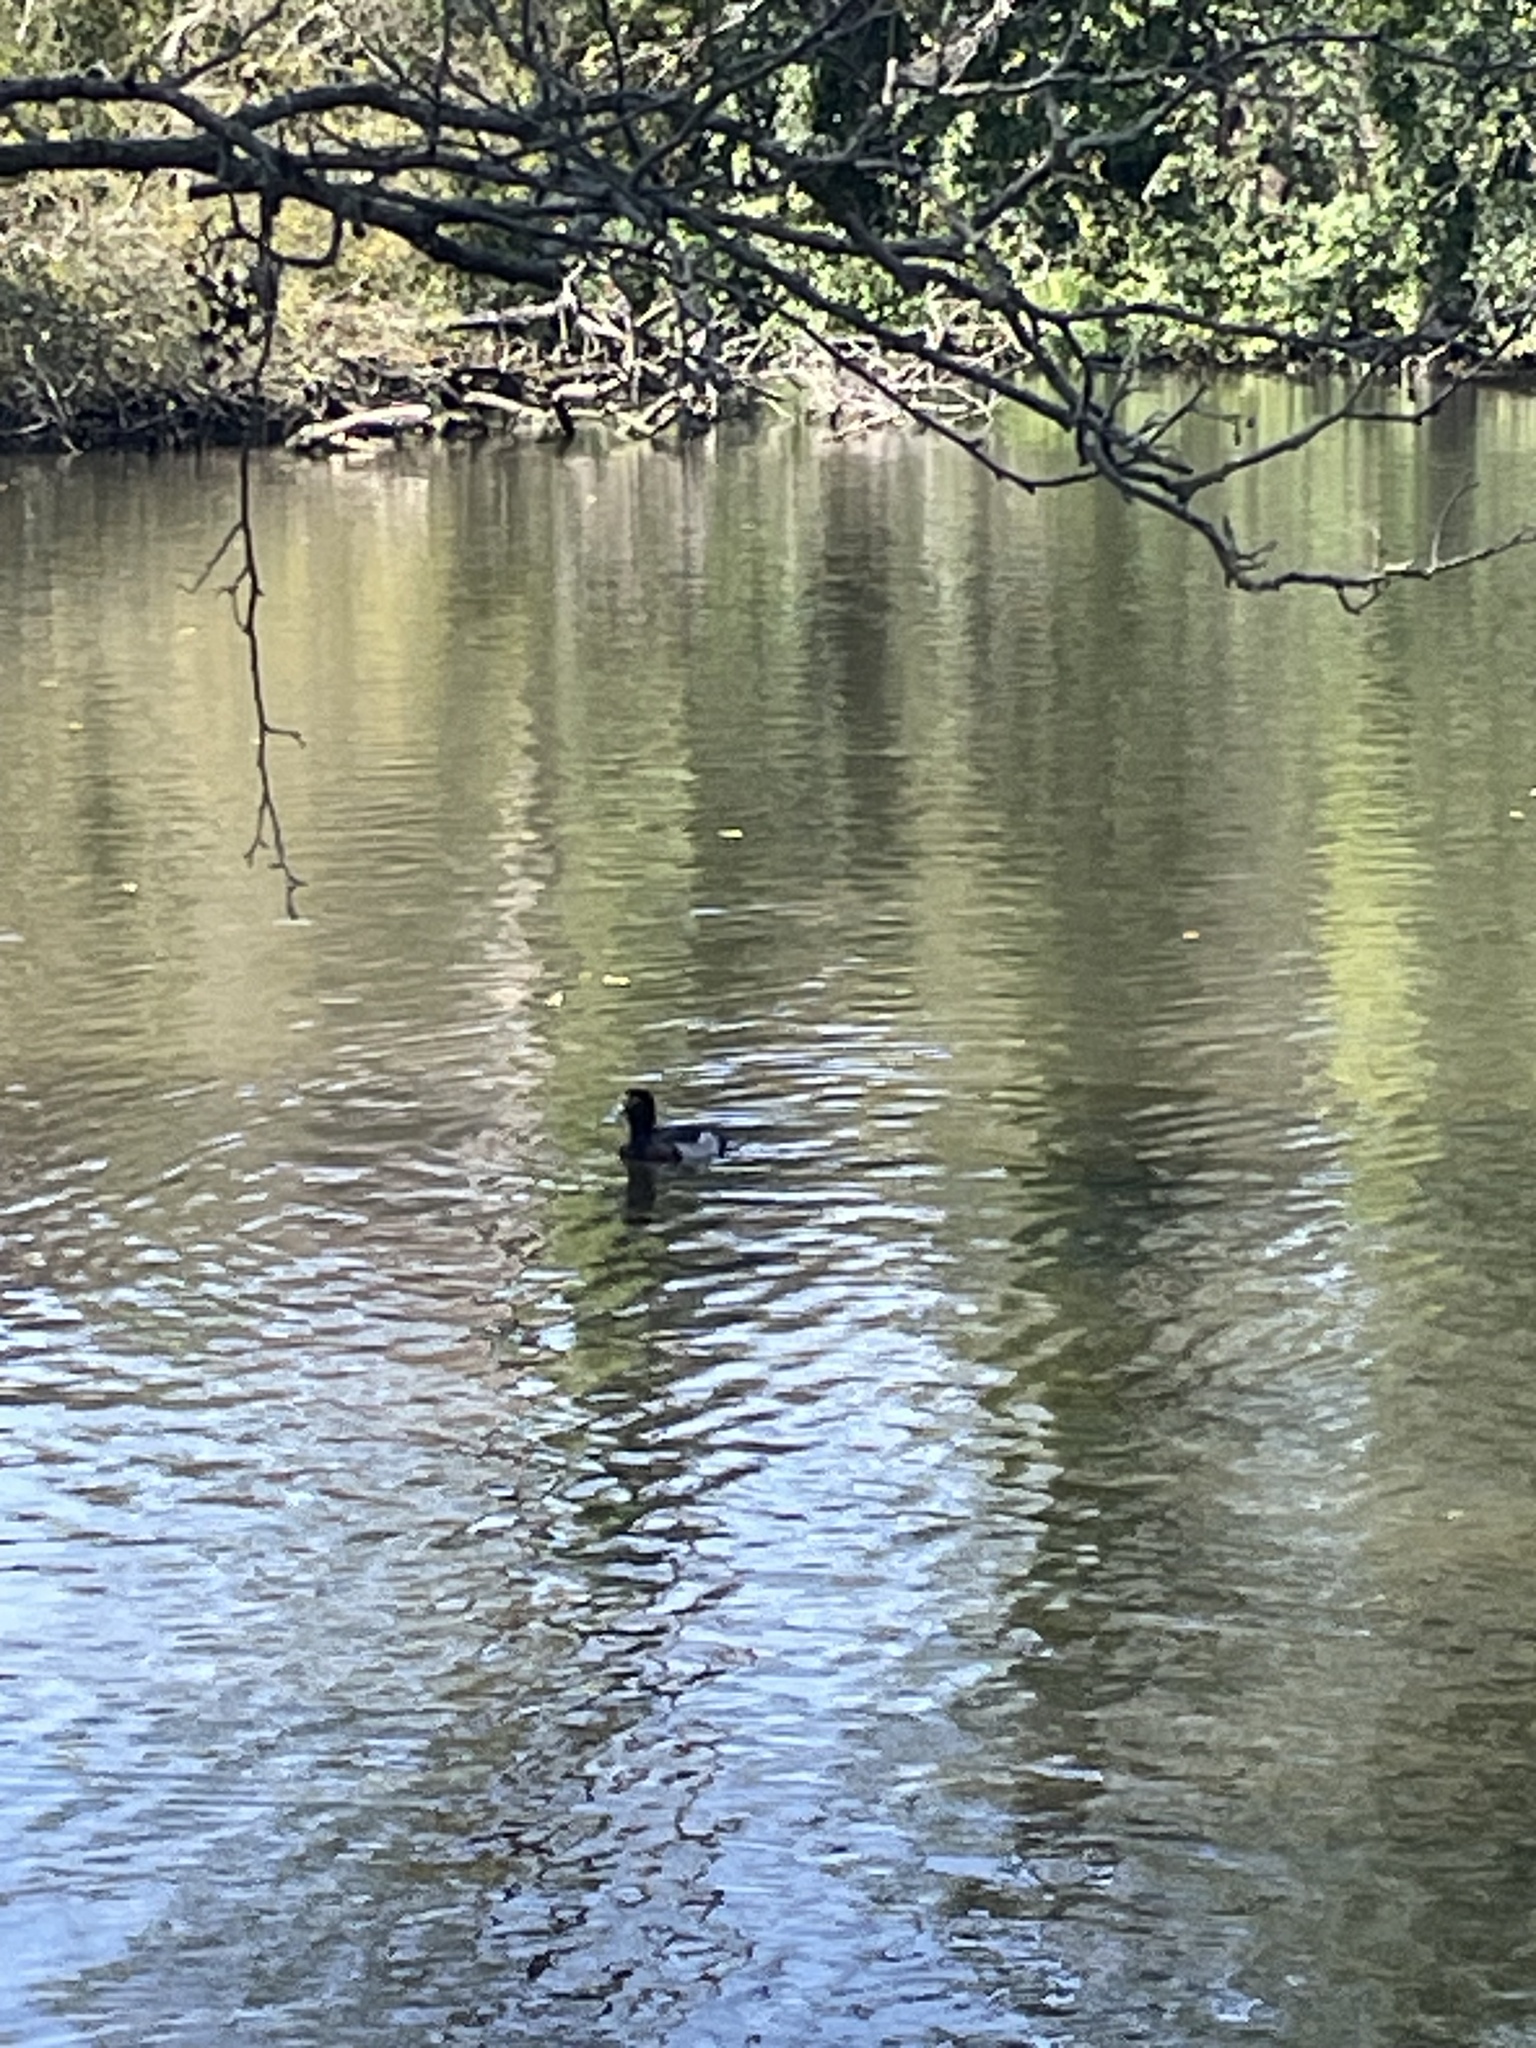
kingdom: Animalia
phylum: Chordata
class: Aves
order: Anseriformes
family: Anatidae
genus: Aythya
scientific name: Aythya fuligula
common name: Tufted duck
